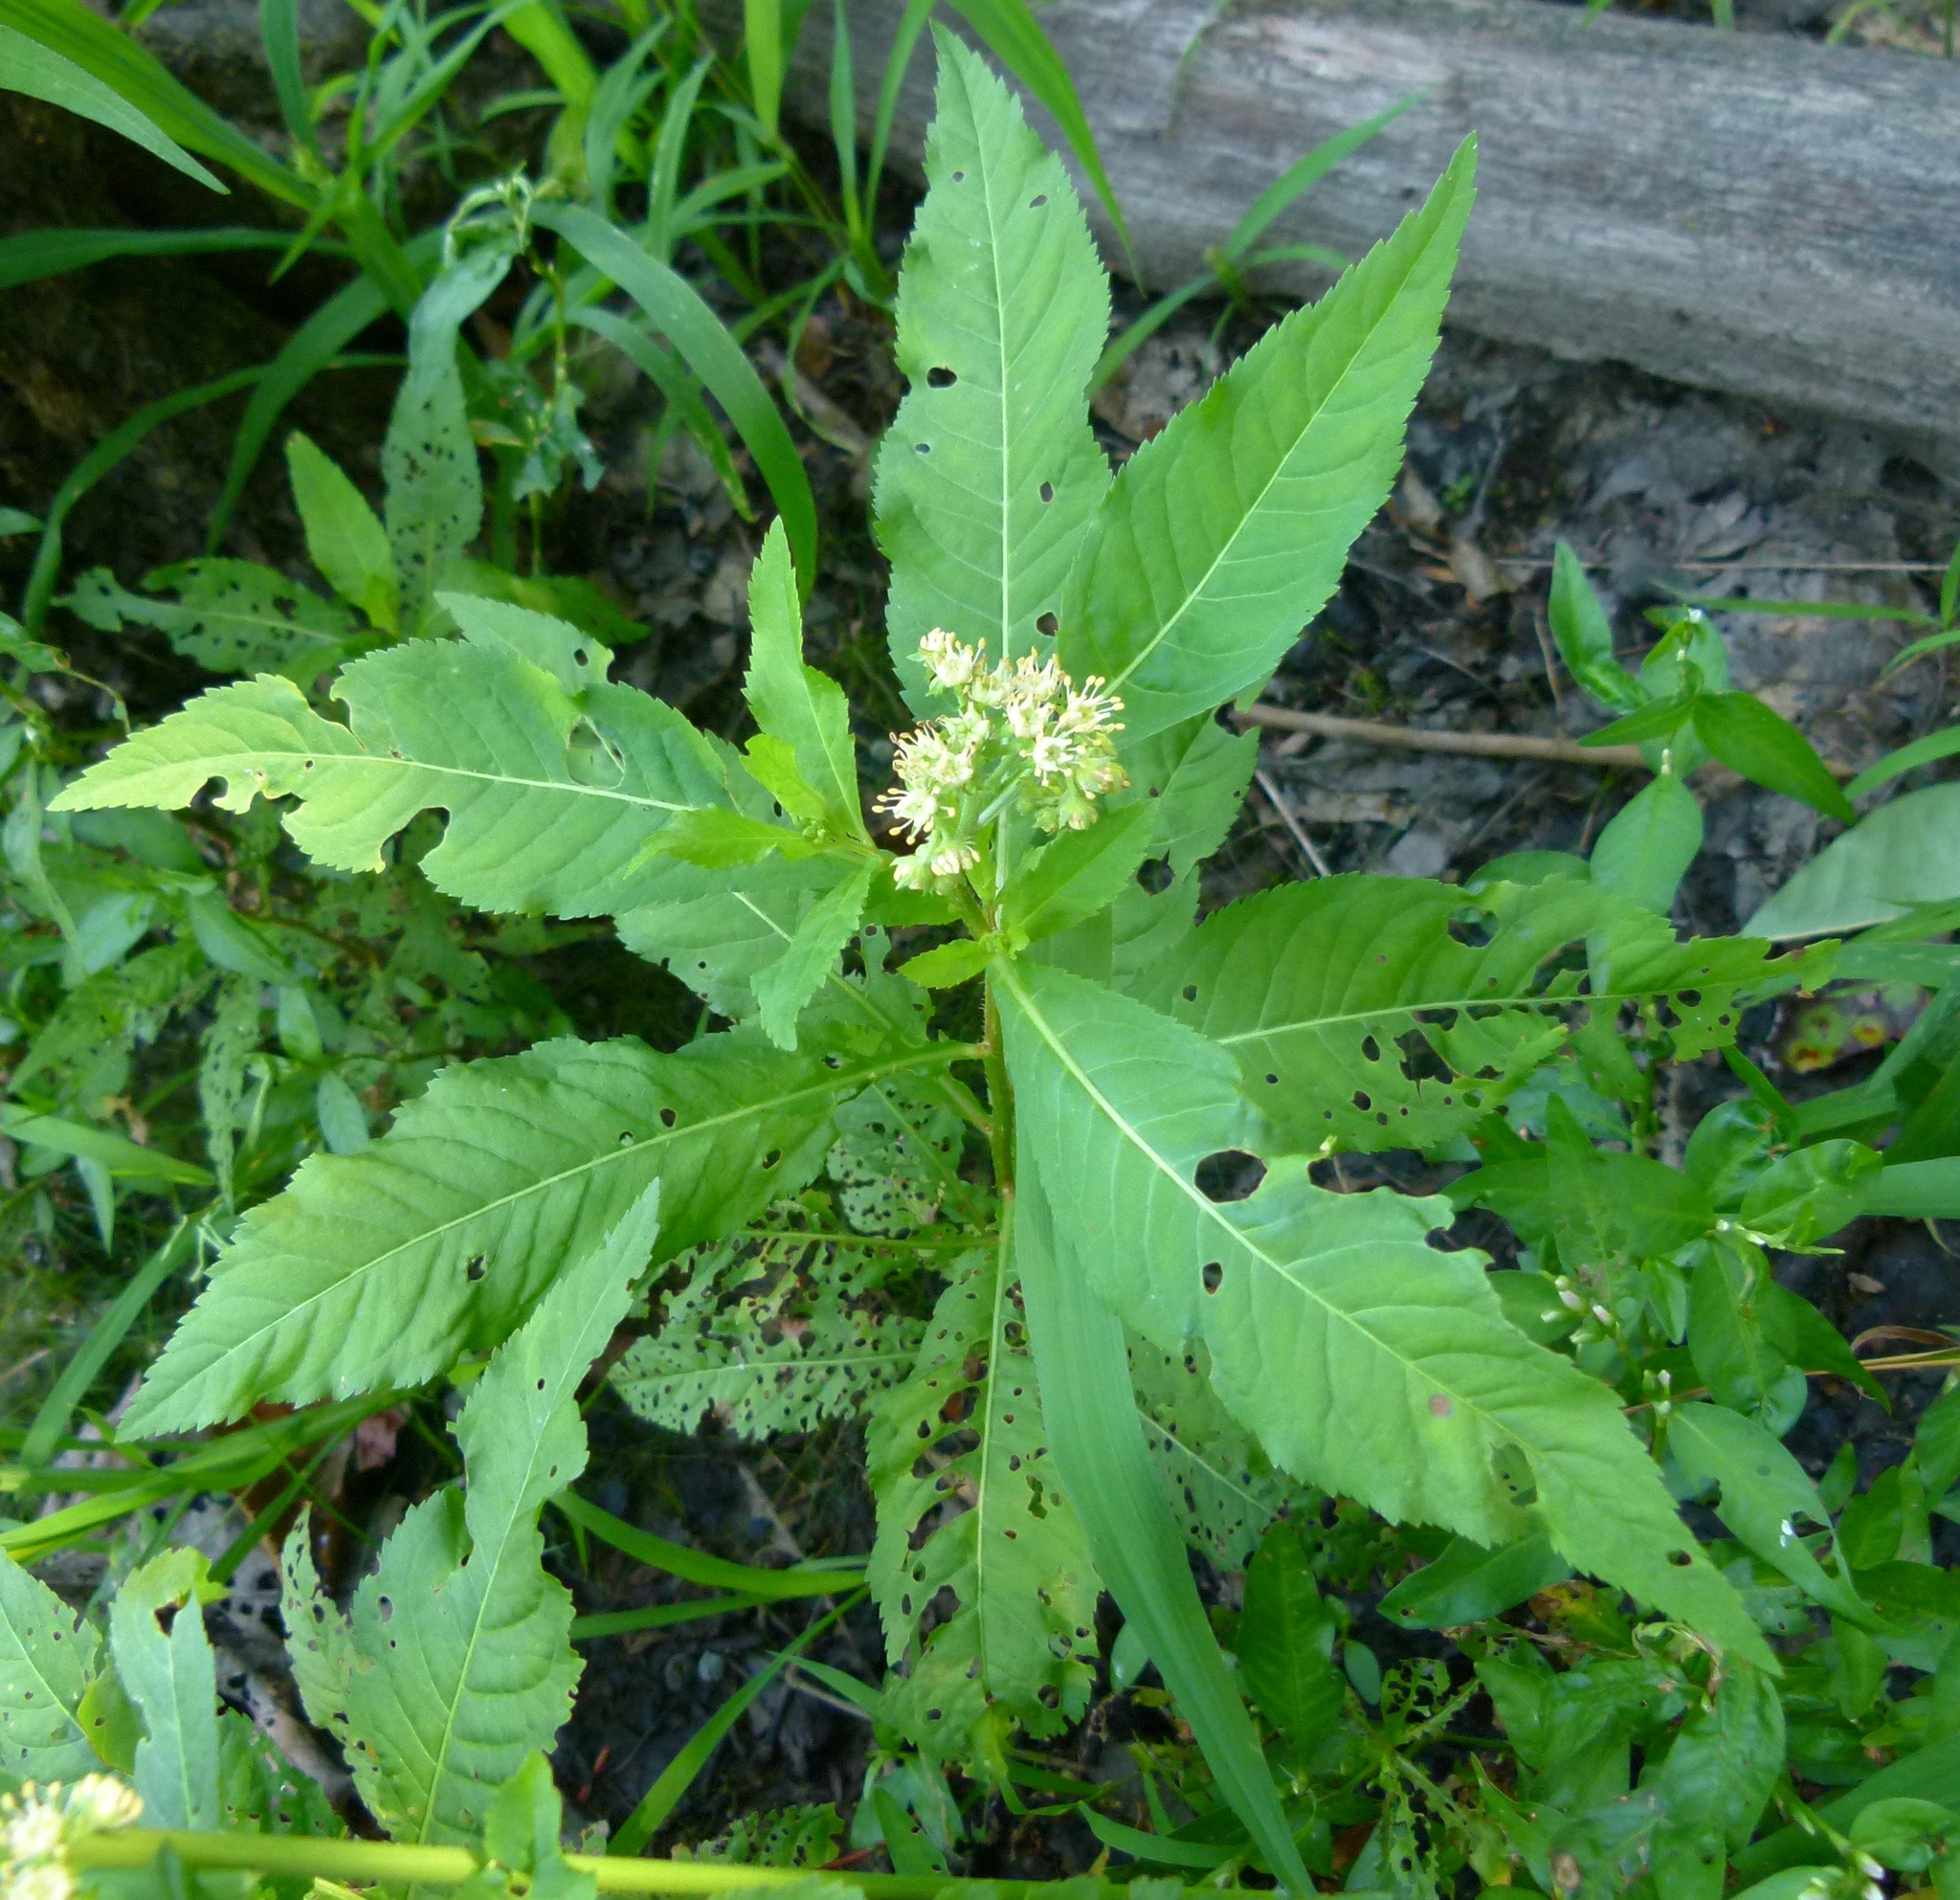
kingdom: Plantae
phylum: Tracheophyta
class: Magnoliopsida
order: Saxifragales
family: Penthoraceae
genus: Penthorum
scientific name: Penthorum sedoides
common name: Ditch stonecrop
